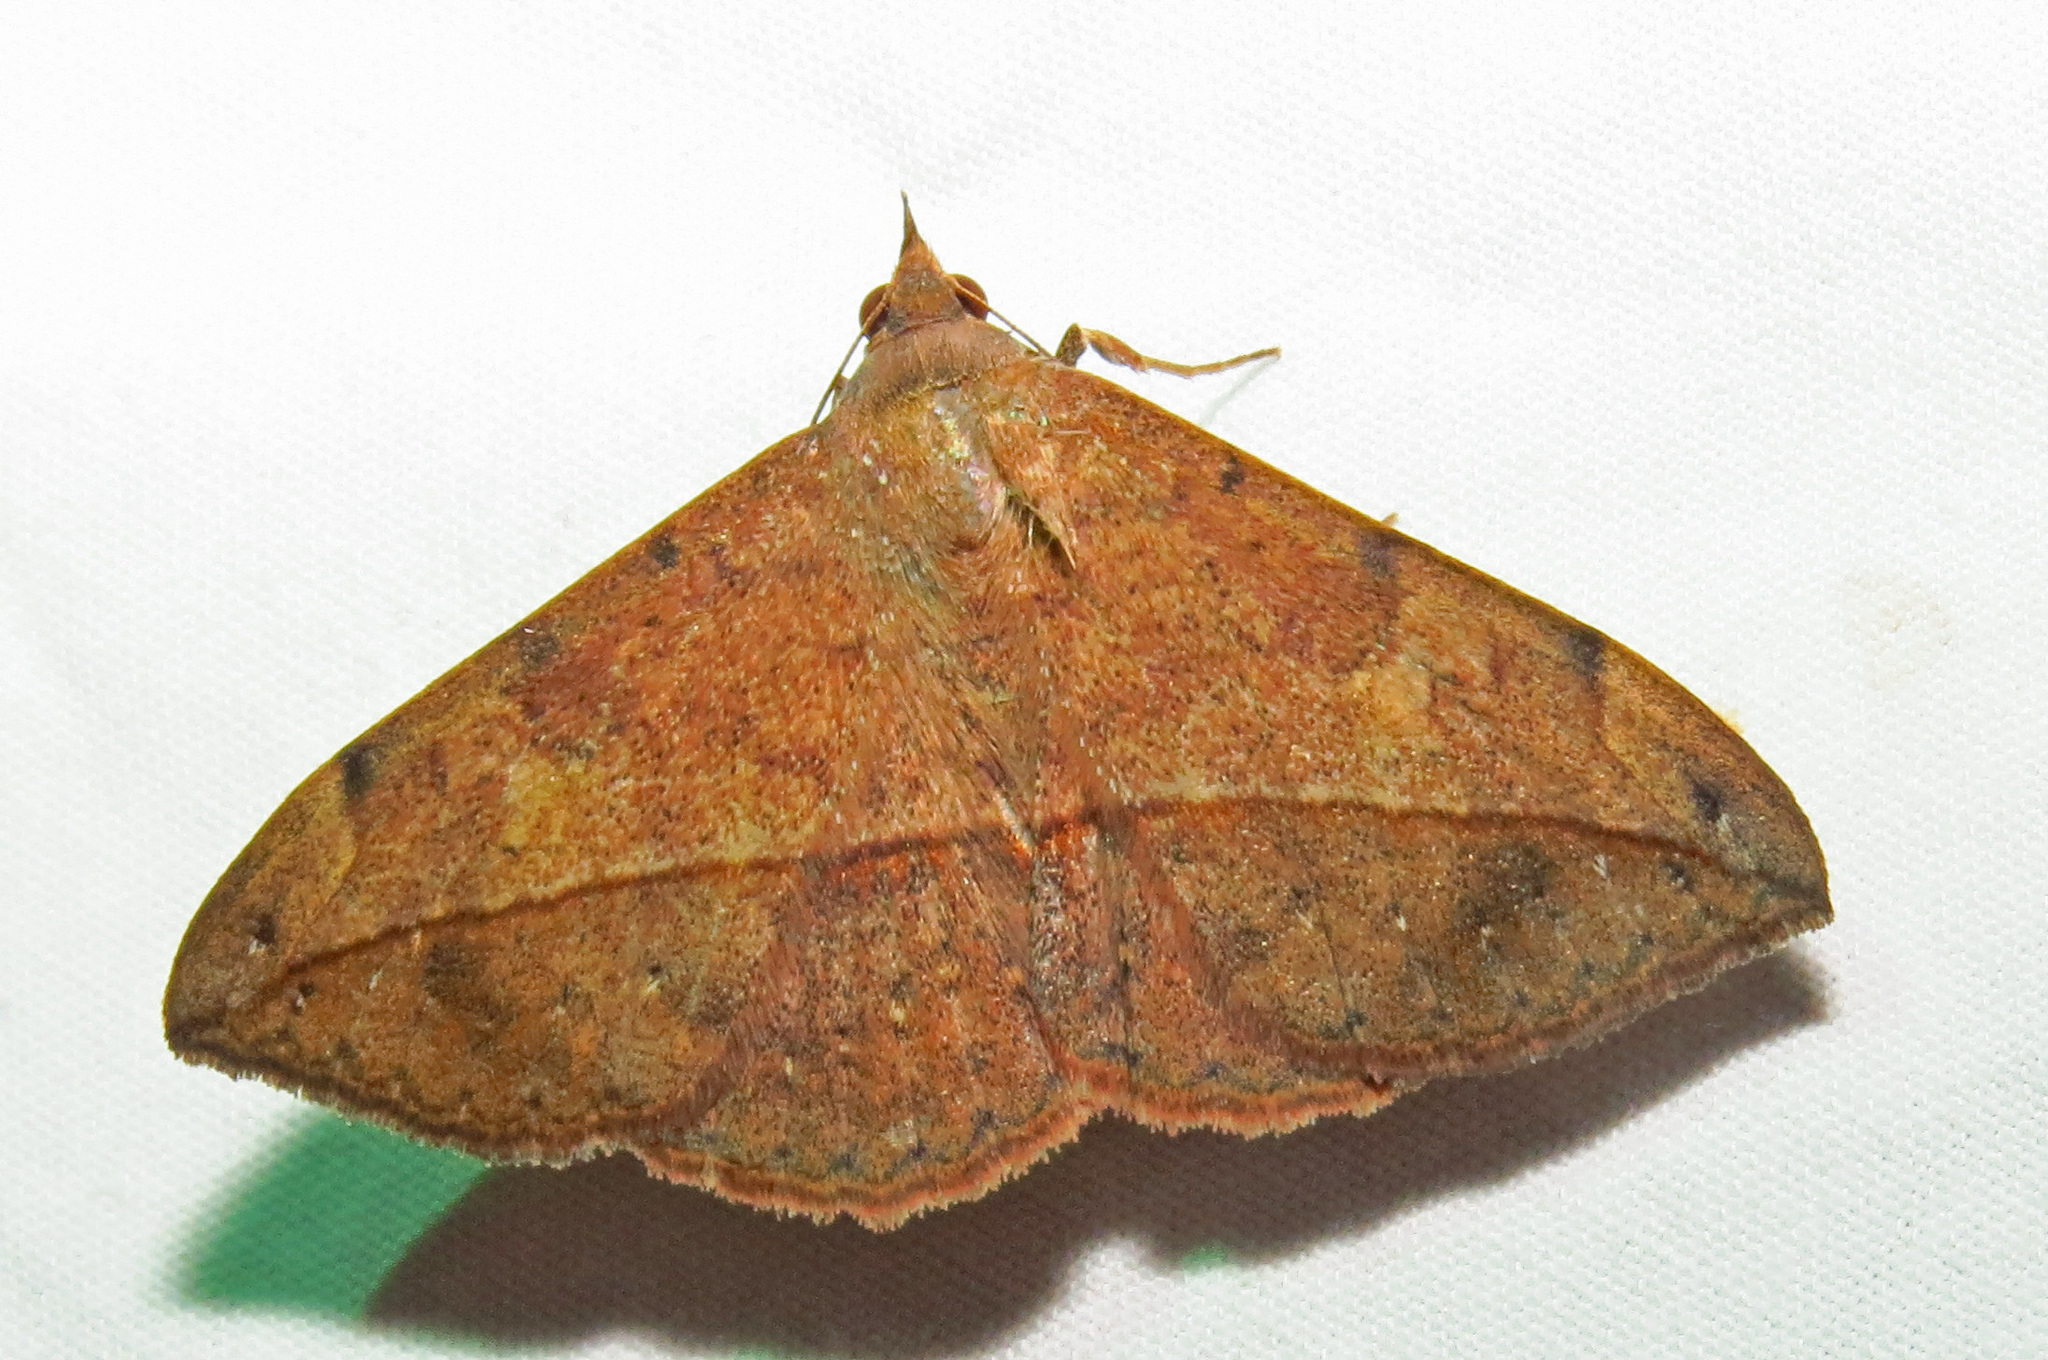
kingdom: Animalia
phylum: Arthropoda
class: Insecta
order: Lepidoptera
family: Erebidae
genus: Anticarsia
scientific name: Anticarsia gemmatalis
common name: Cutworm moth
